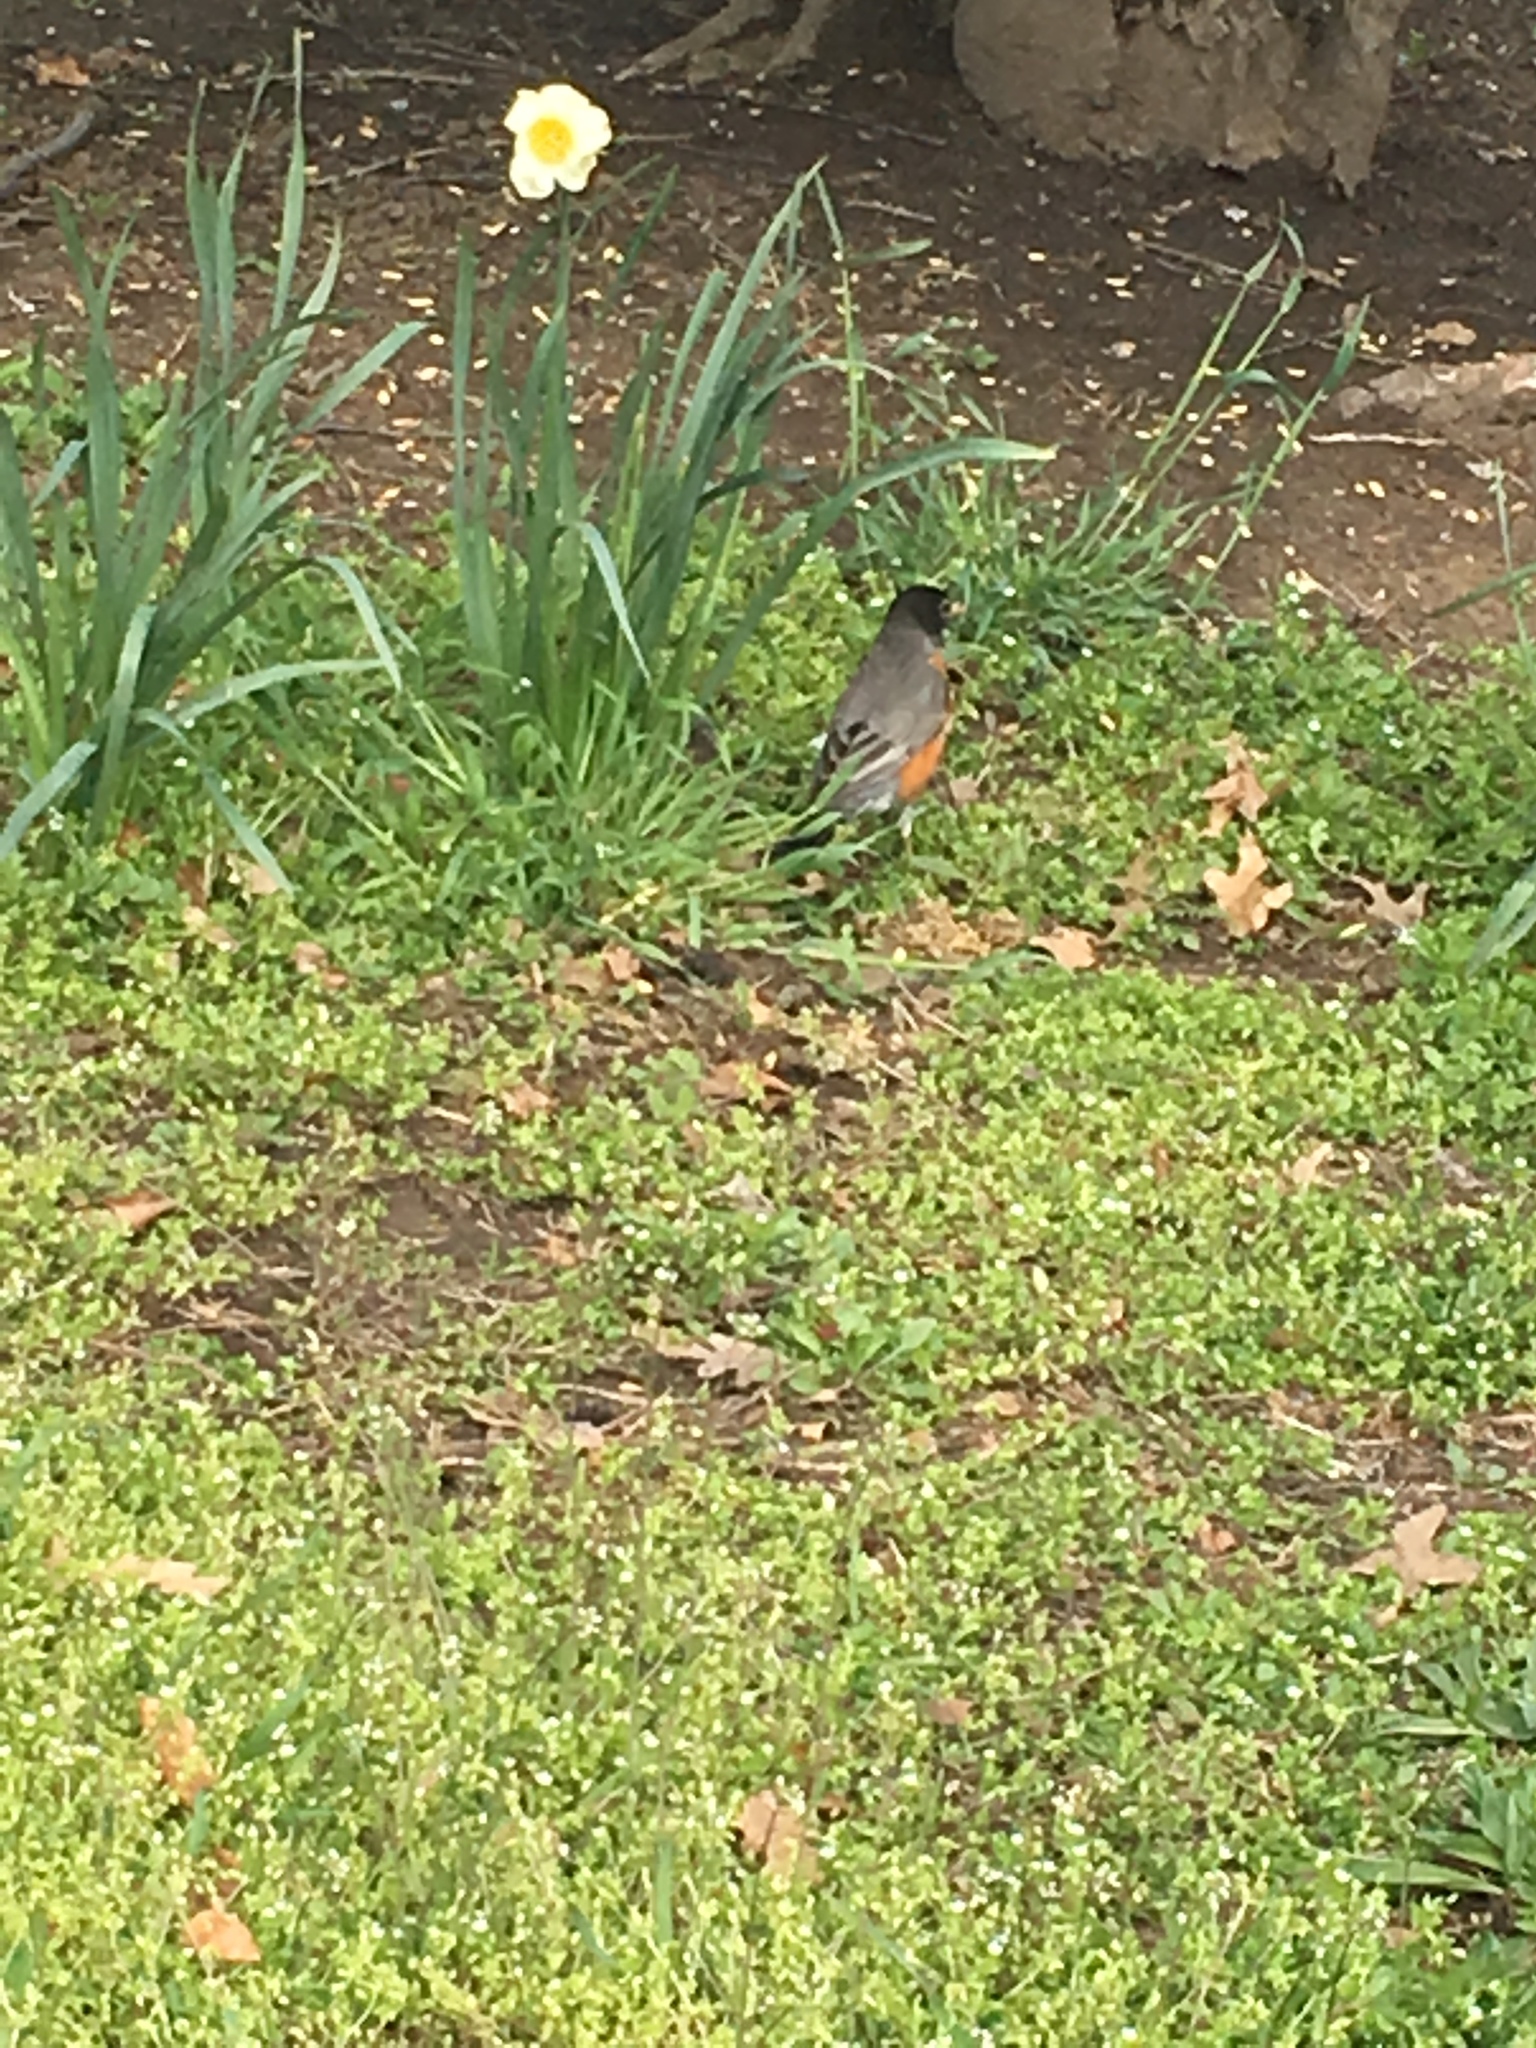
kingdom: Animalia
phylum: Chordata
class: Aves
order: Passeriformes
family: Turdidae
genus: Turdus
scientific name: Turdus migratorius
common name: American robin
